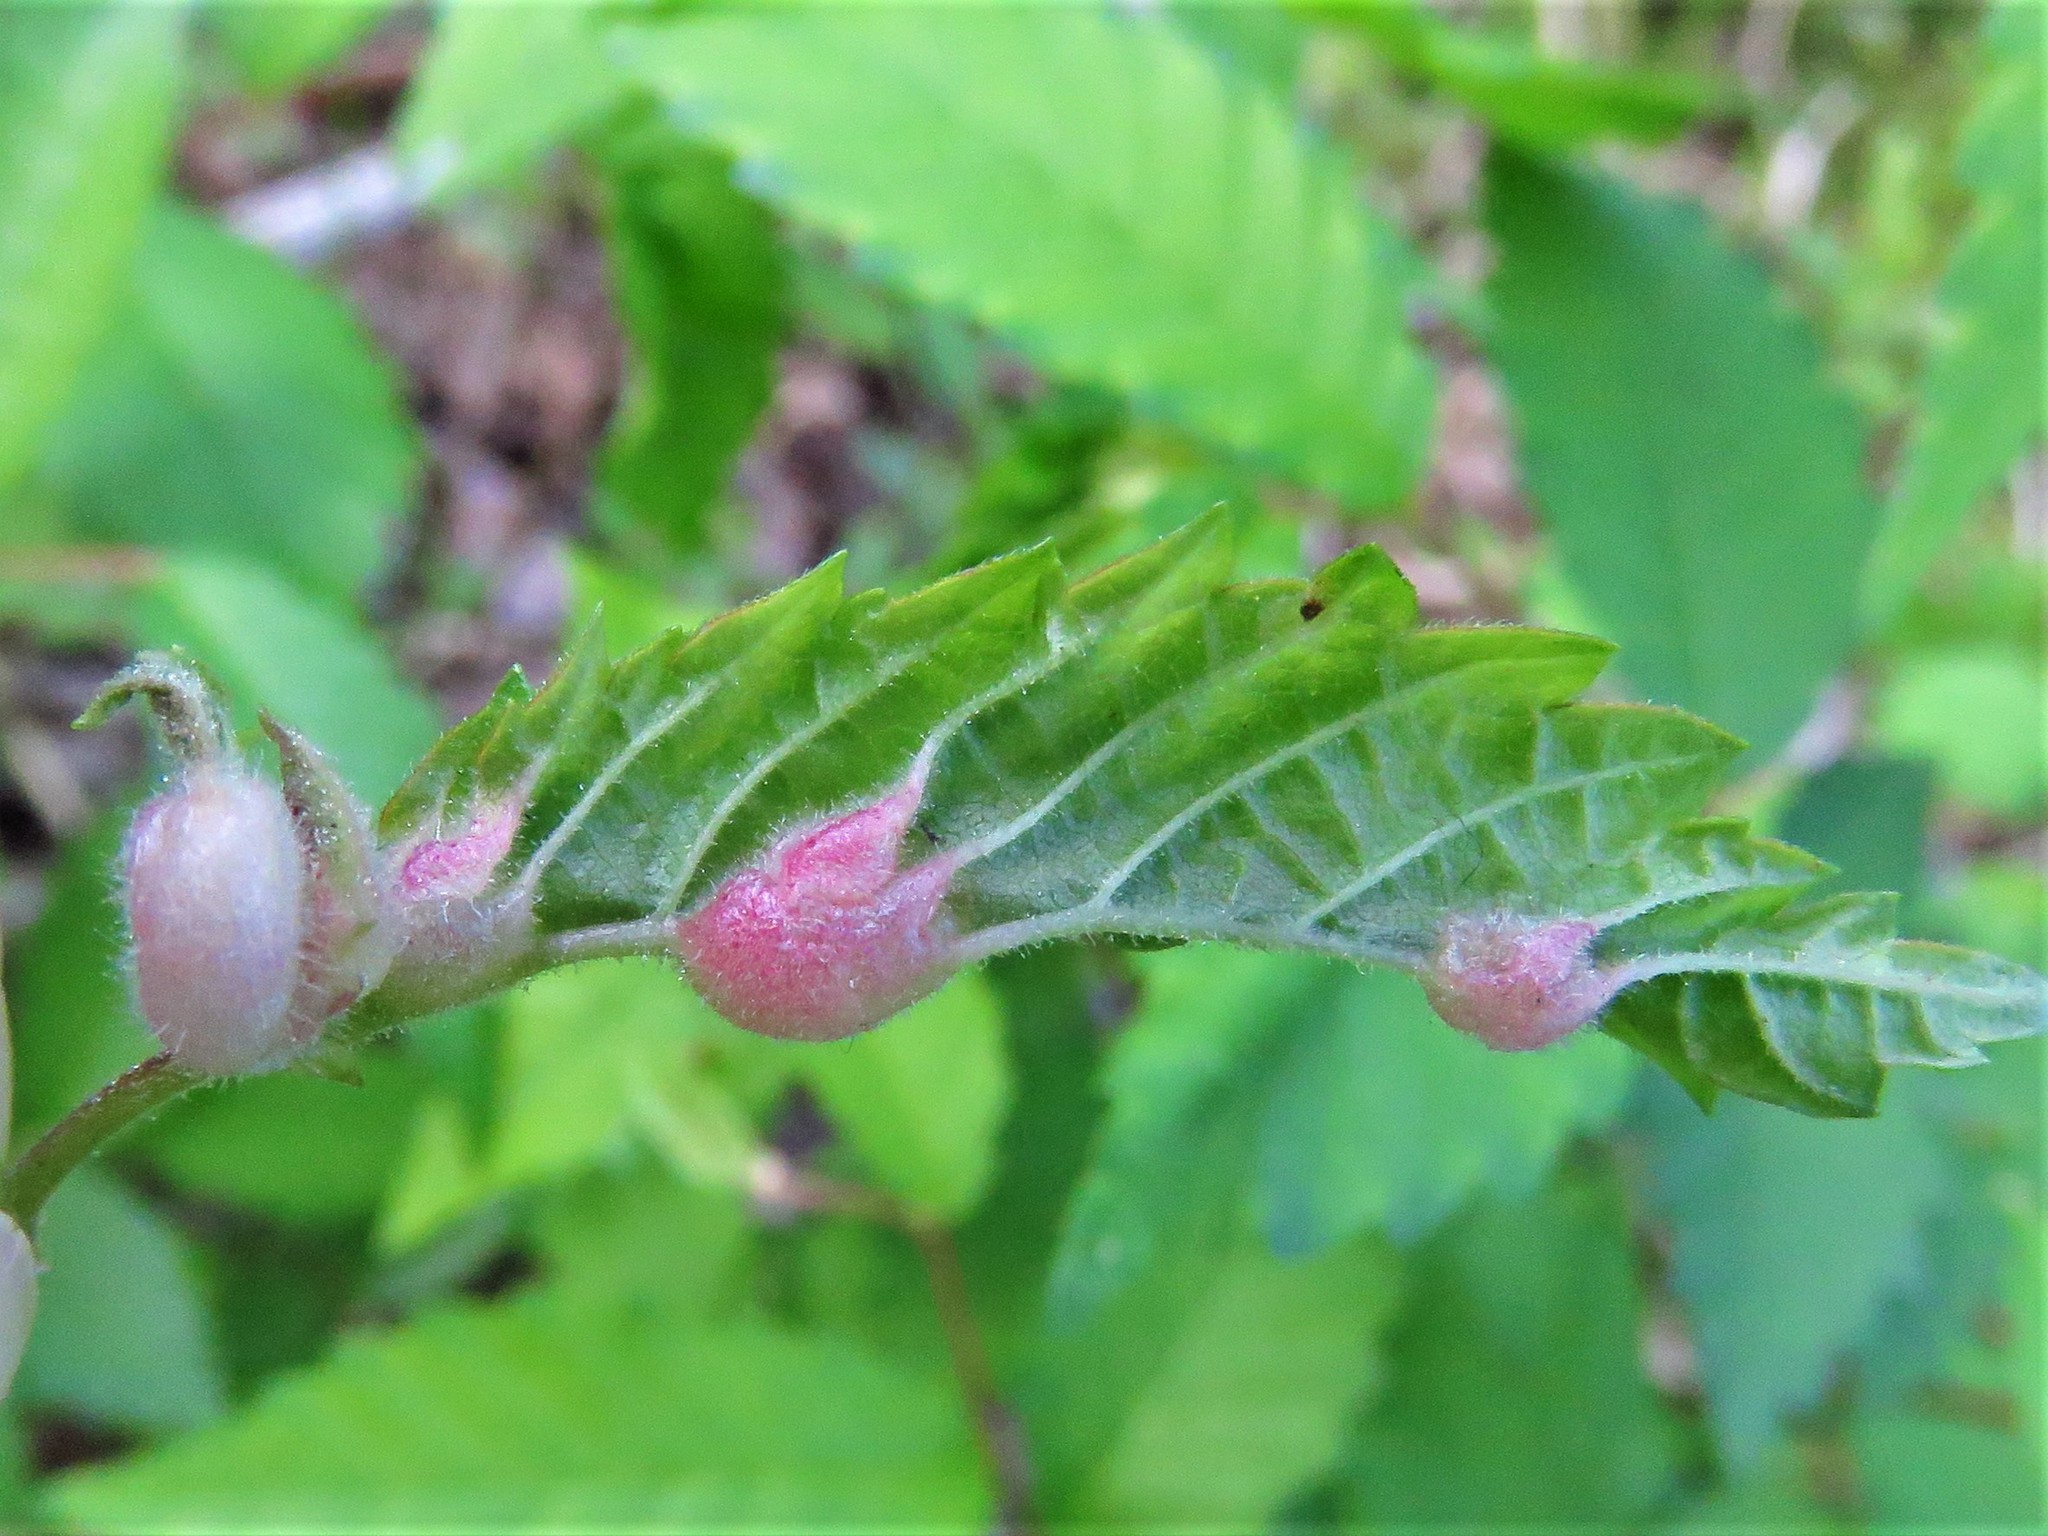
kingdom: Animalia
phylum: Arthropoda
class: Insecta
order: Diptera
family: Cecidomyiidae
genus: Janetiella
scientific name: Janetiella ulmii
